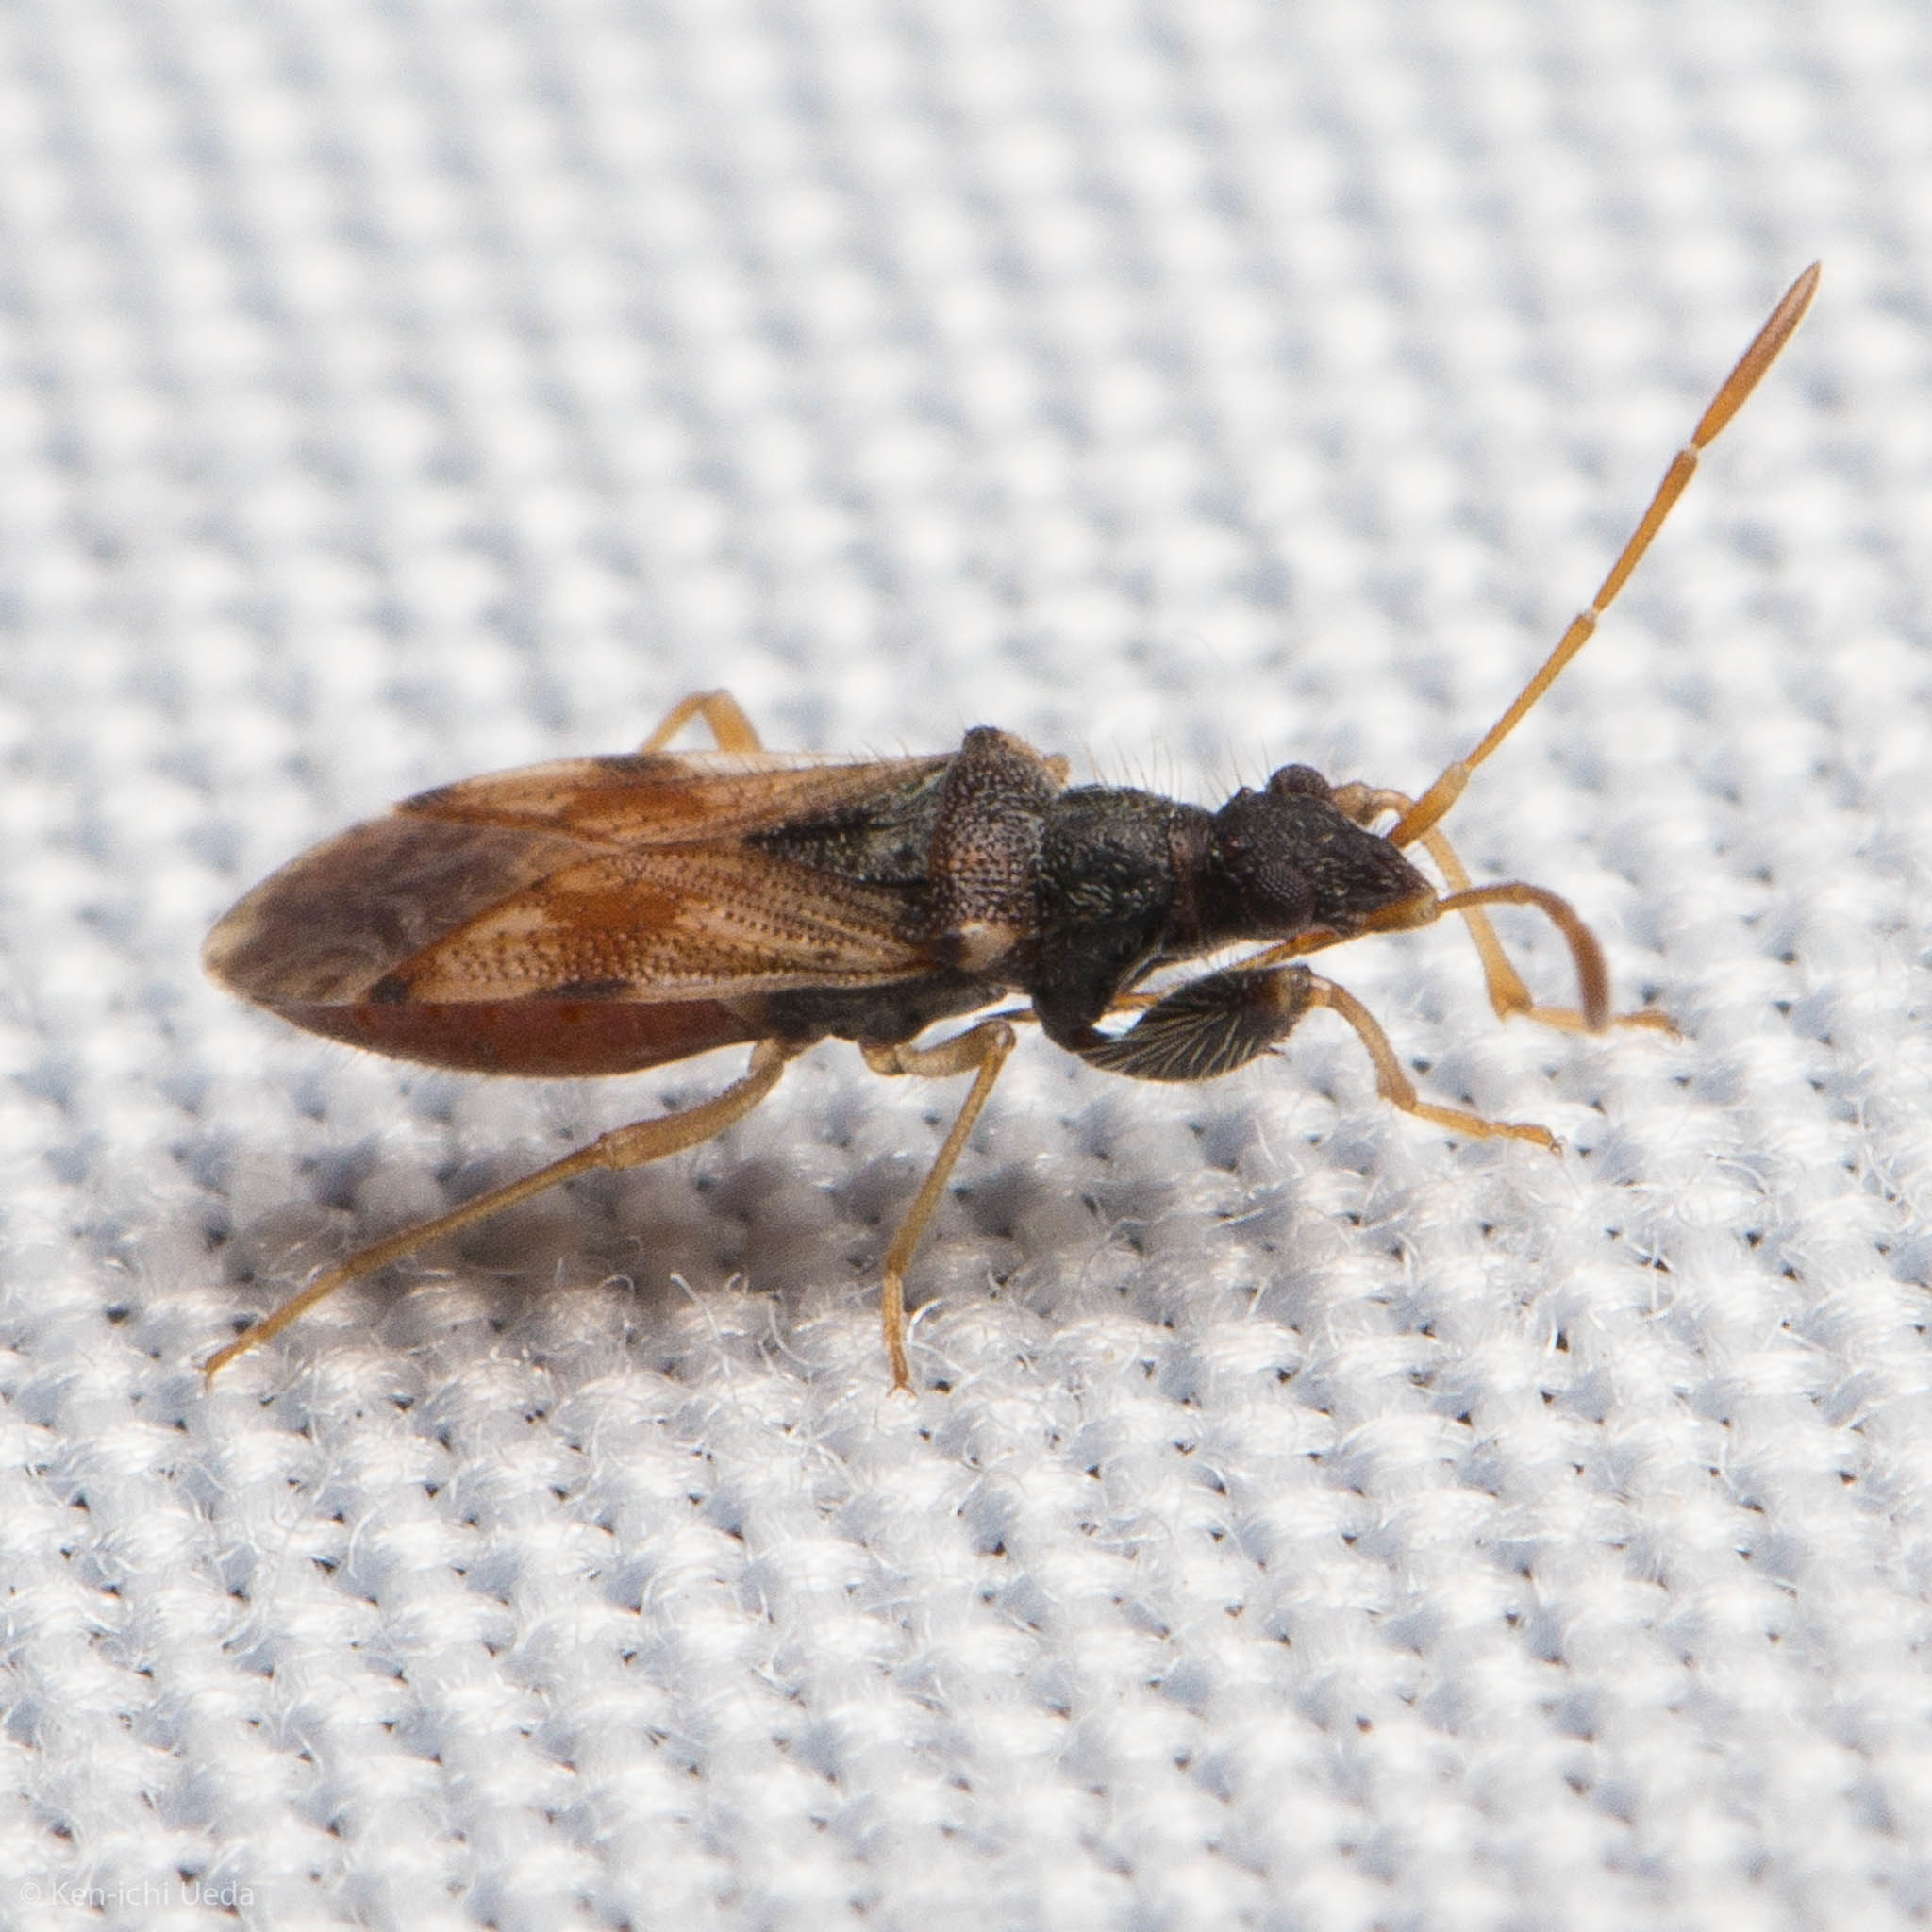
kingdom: Animalia
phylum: Arthropoda
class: Insecta
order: Hemiptera
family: Rhyparochromidae
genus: Pseudopamera
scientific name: Pseudopamera setosa
